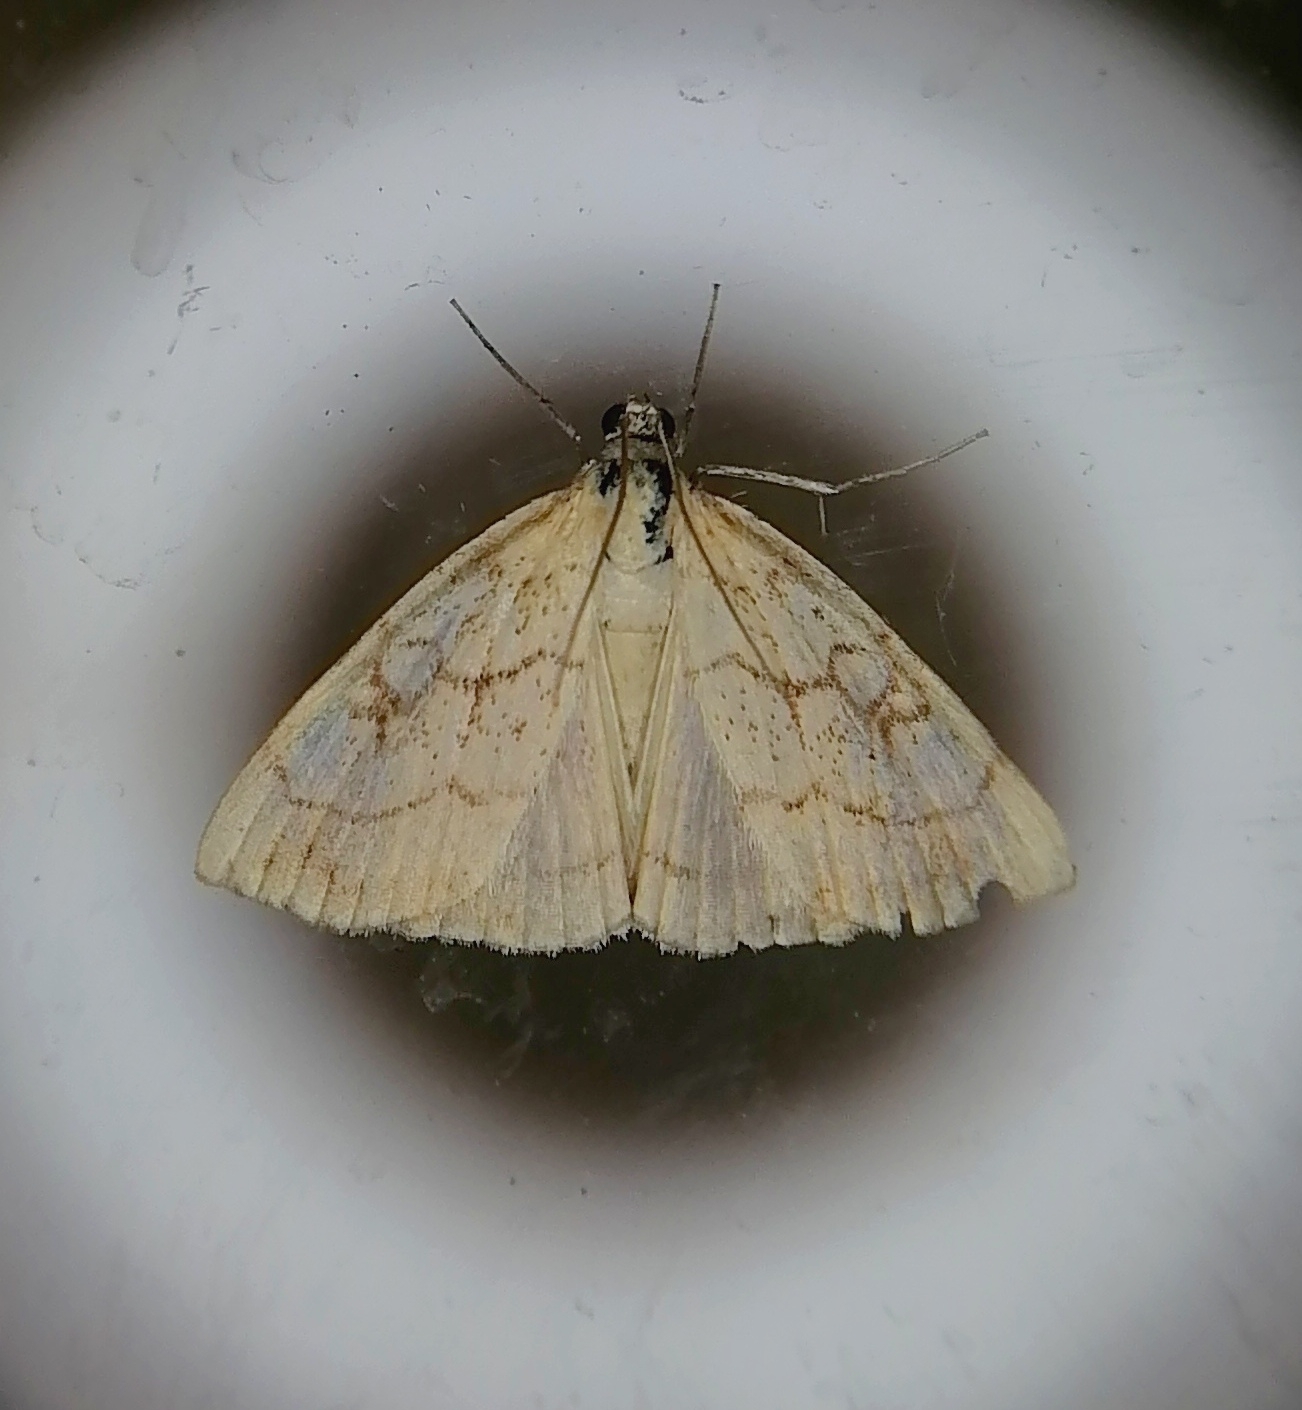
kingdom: Animalia
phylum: Arthropoda
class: Insecta
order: Lepidoptera
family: Crambidae
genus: Evergestis
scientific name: Evergestis pallidata
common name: Chequered pearl
